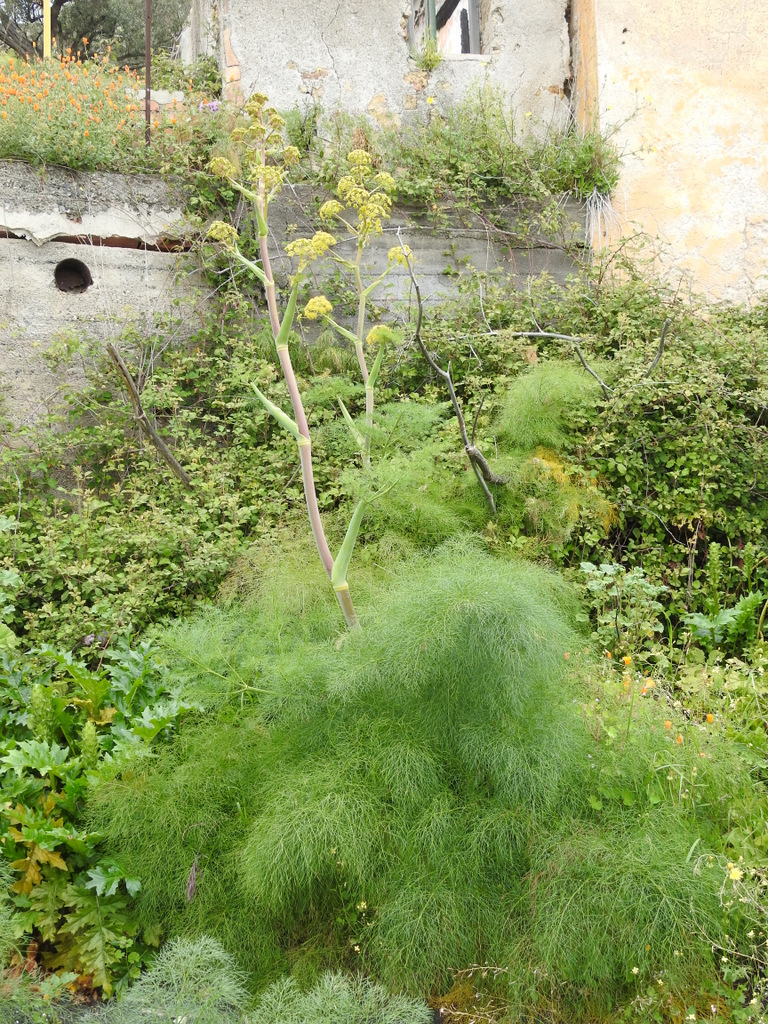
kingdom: Plantae
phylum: Tracheophyta
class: Magnoliopsida
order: Apiales
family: Apiaceae
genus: Ferula
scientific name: Ferula communis
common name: Giant fennel
